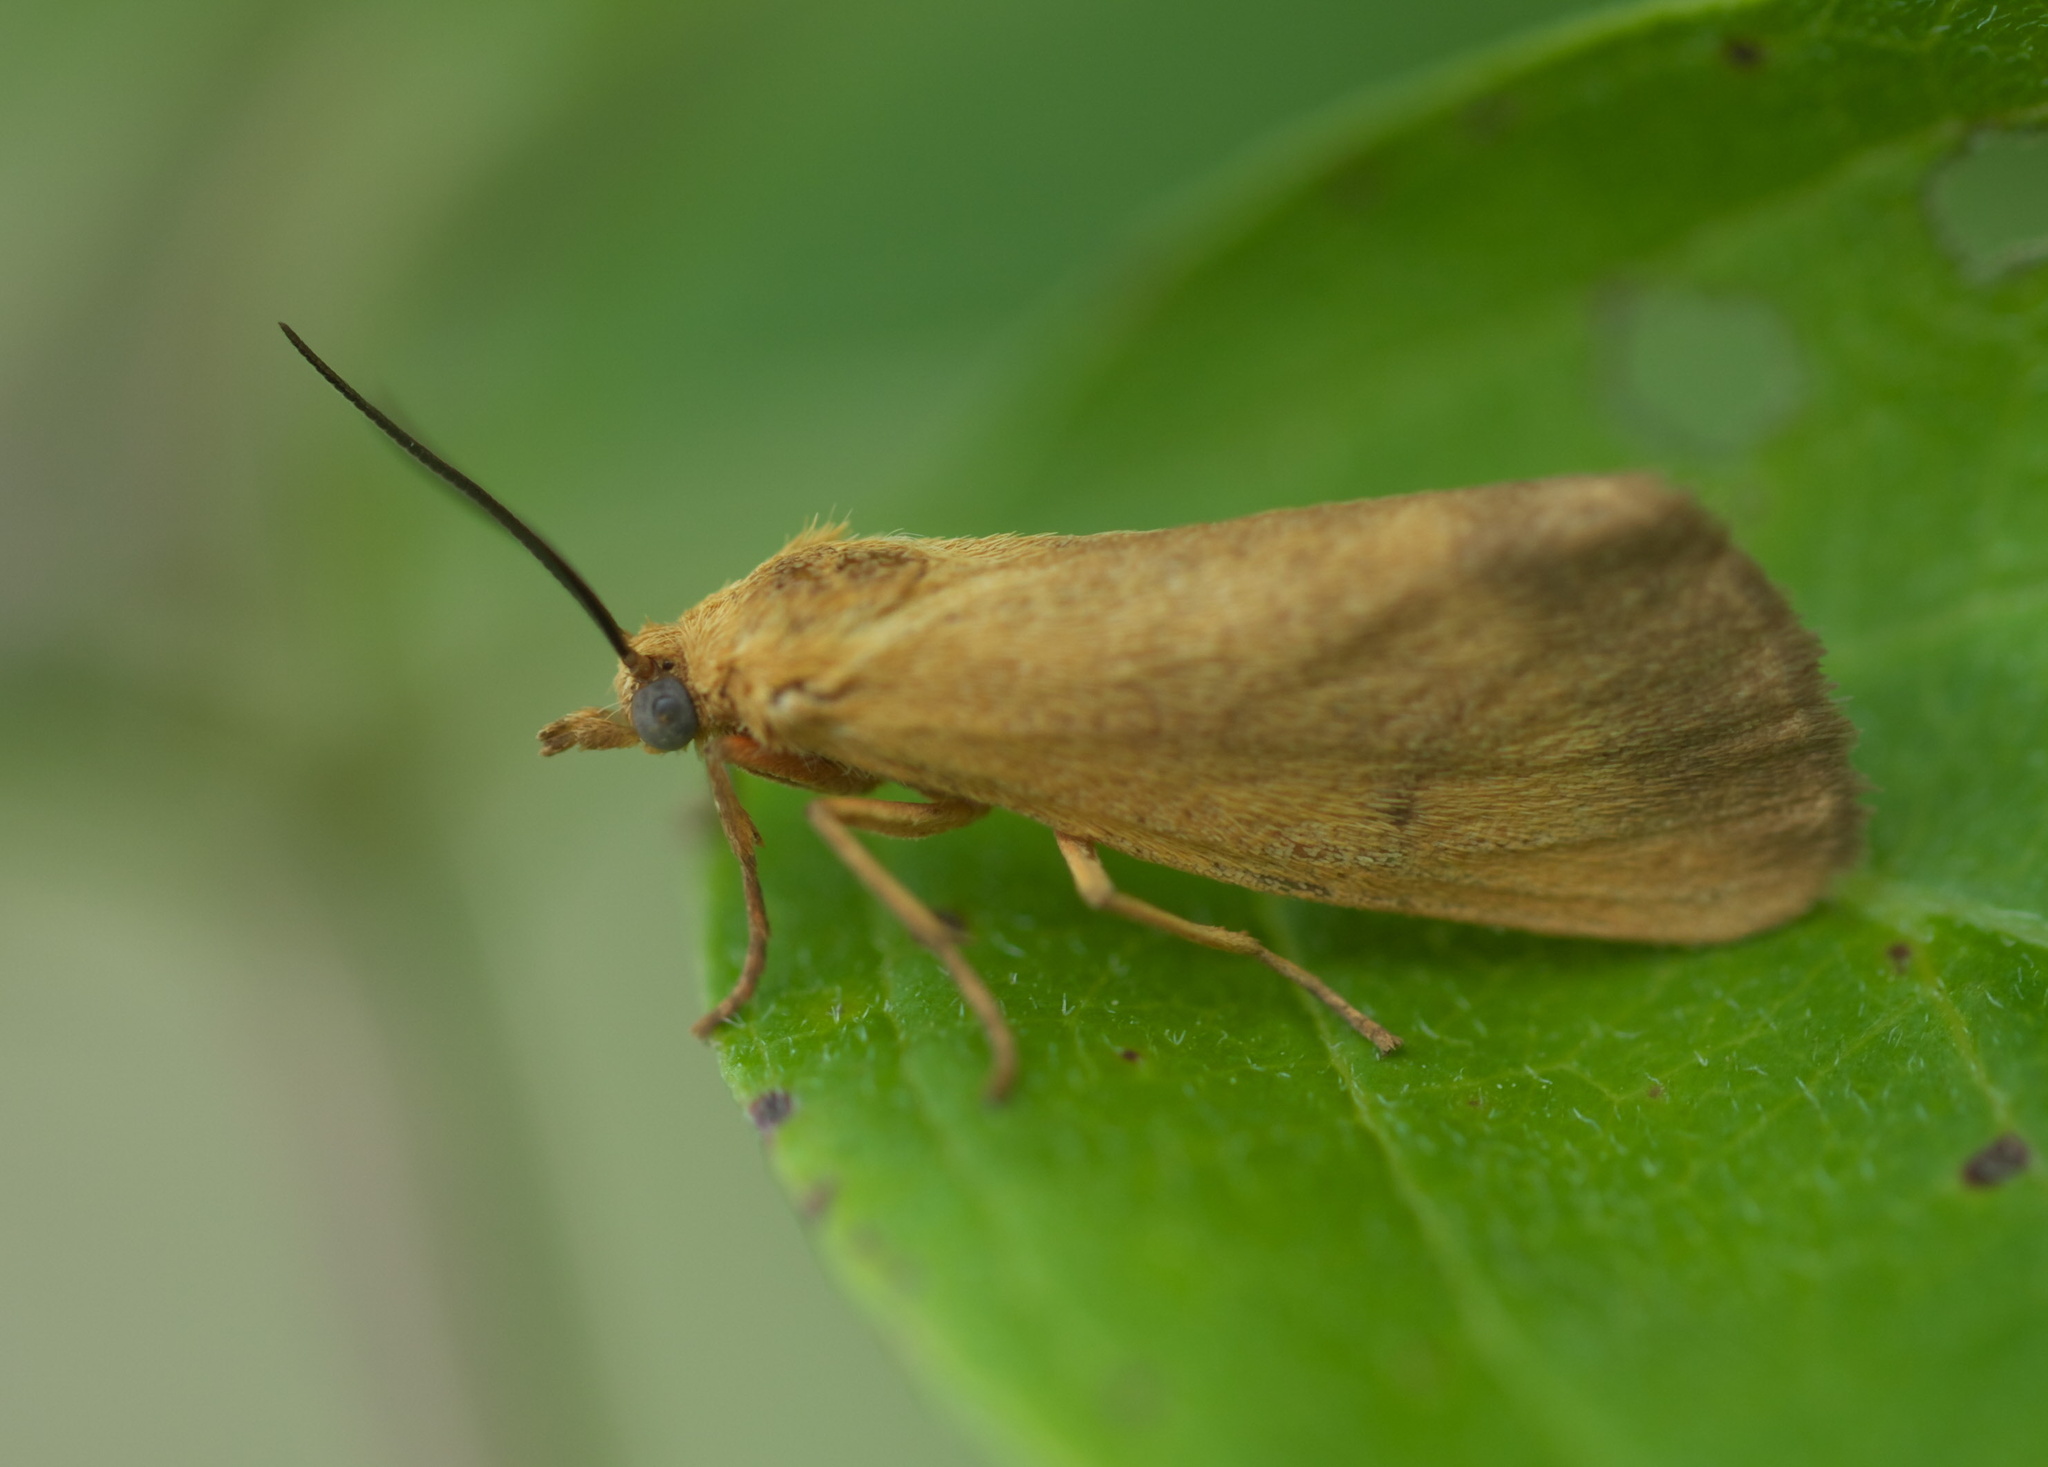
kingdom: Animalia
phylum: Arthropoda
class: Insecta
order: Lepidoptera
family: Erebidae
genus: Virbia
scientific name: Virbia aurantiaca
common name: Orange virbia moth
